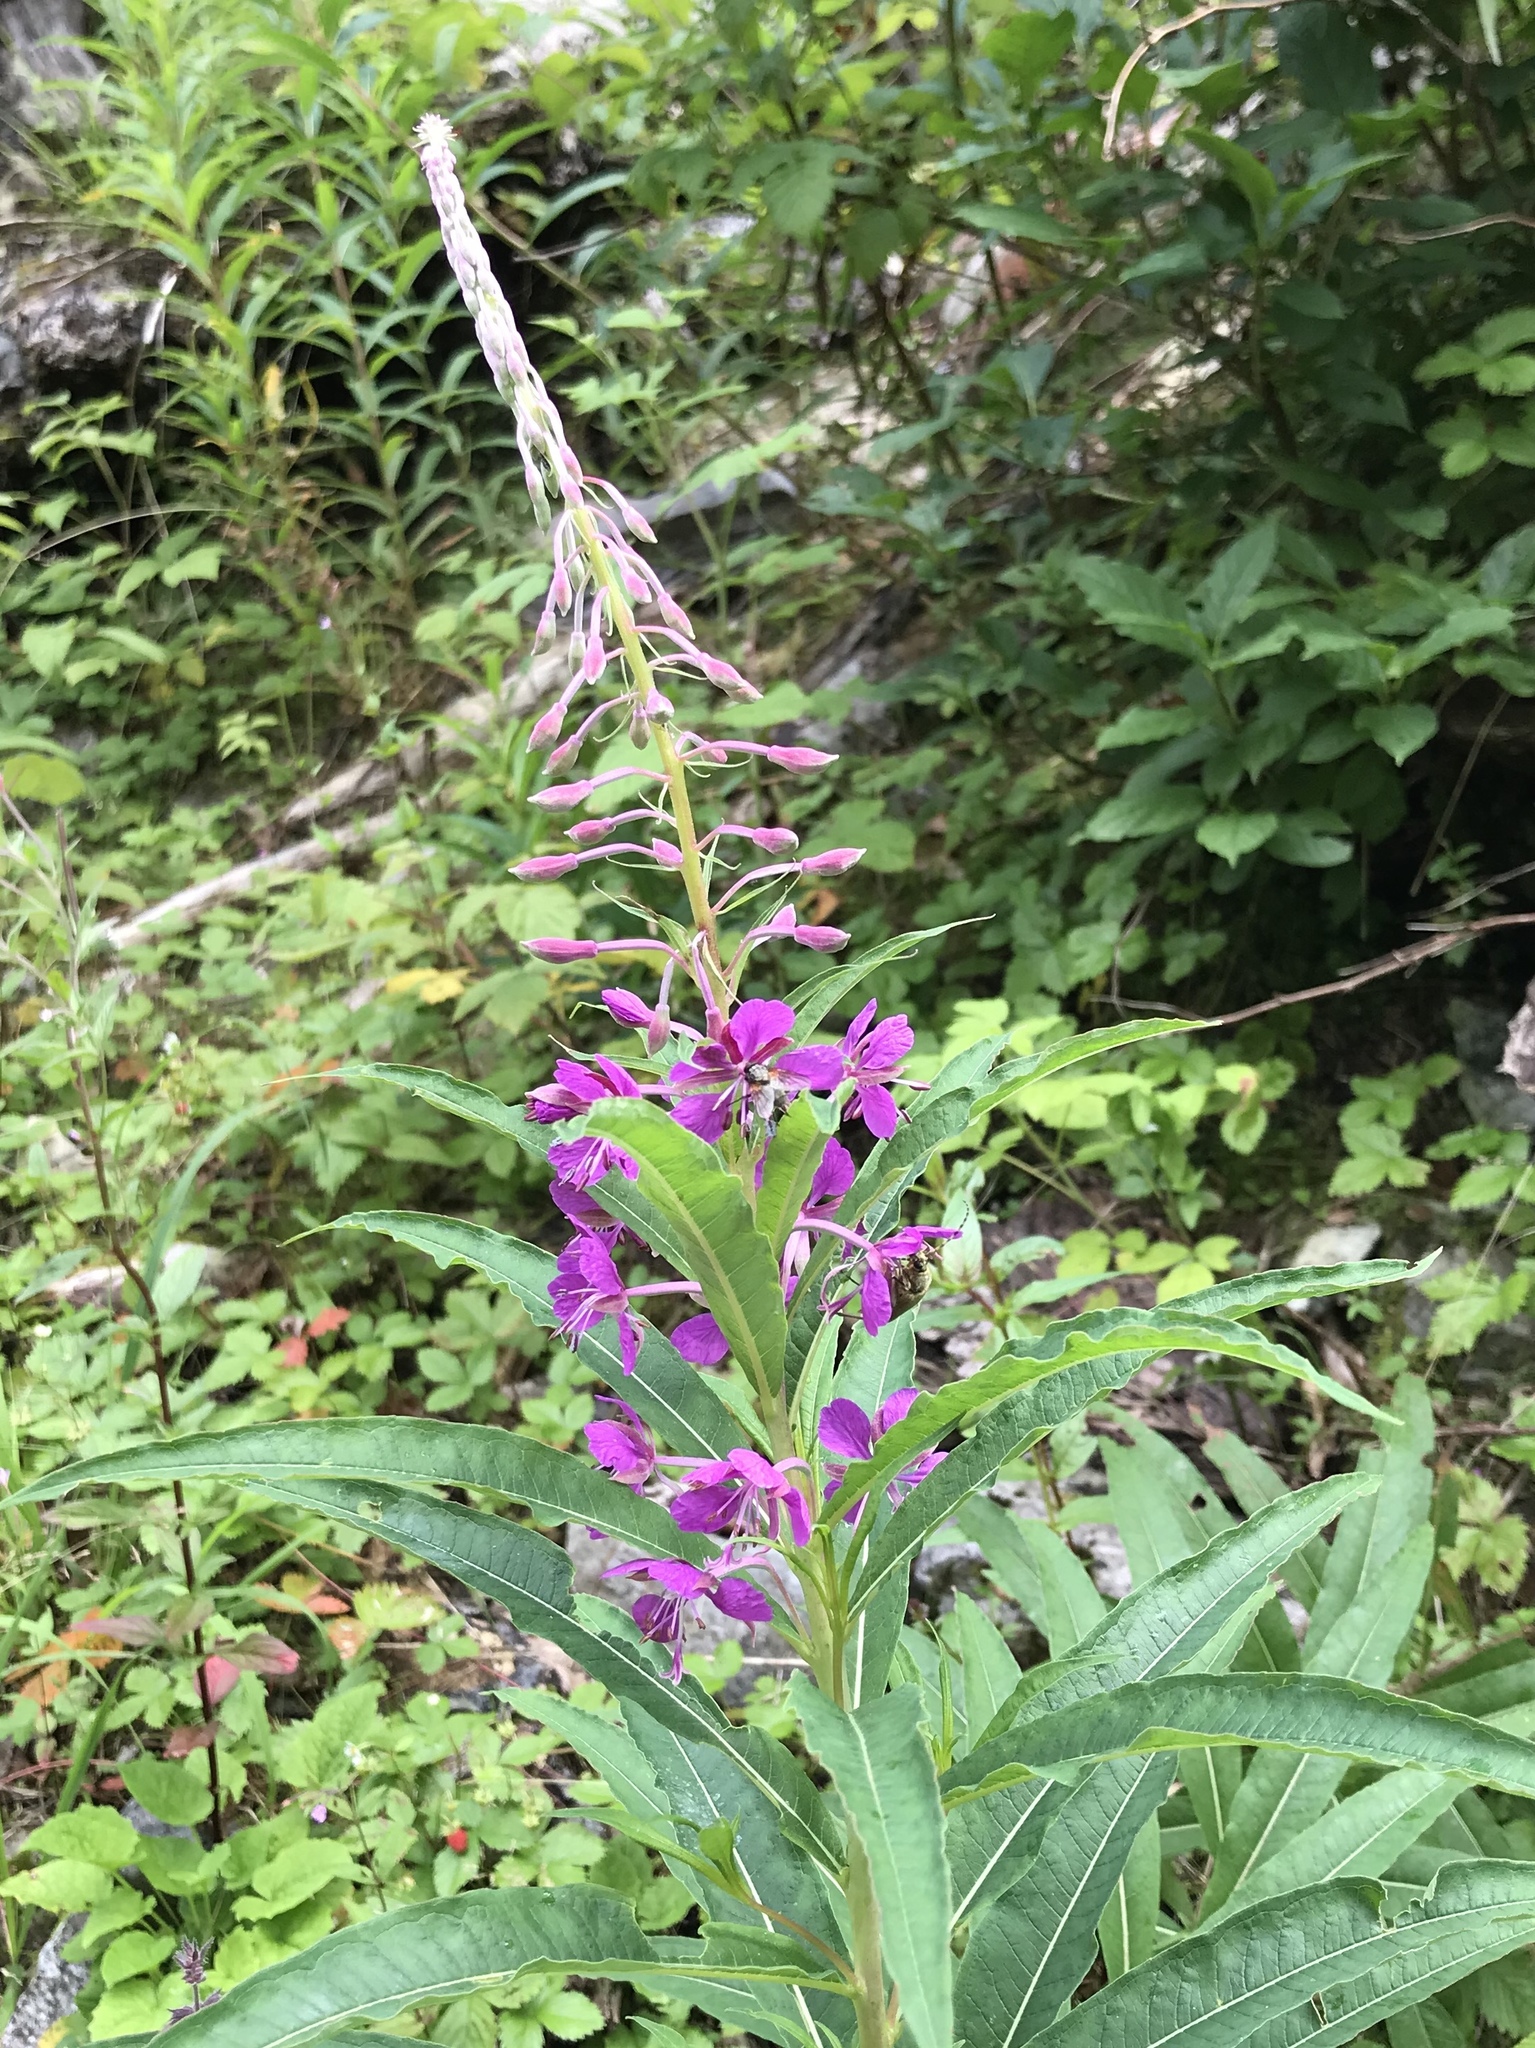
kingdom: Plantae
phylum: Tracheophyta
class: Magnoliopsida
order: Myrtales
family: Onagraceae
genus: Chamaenerion
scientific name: Chamaenerion angustifolium
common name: Fireweed
